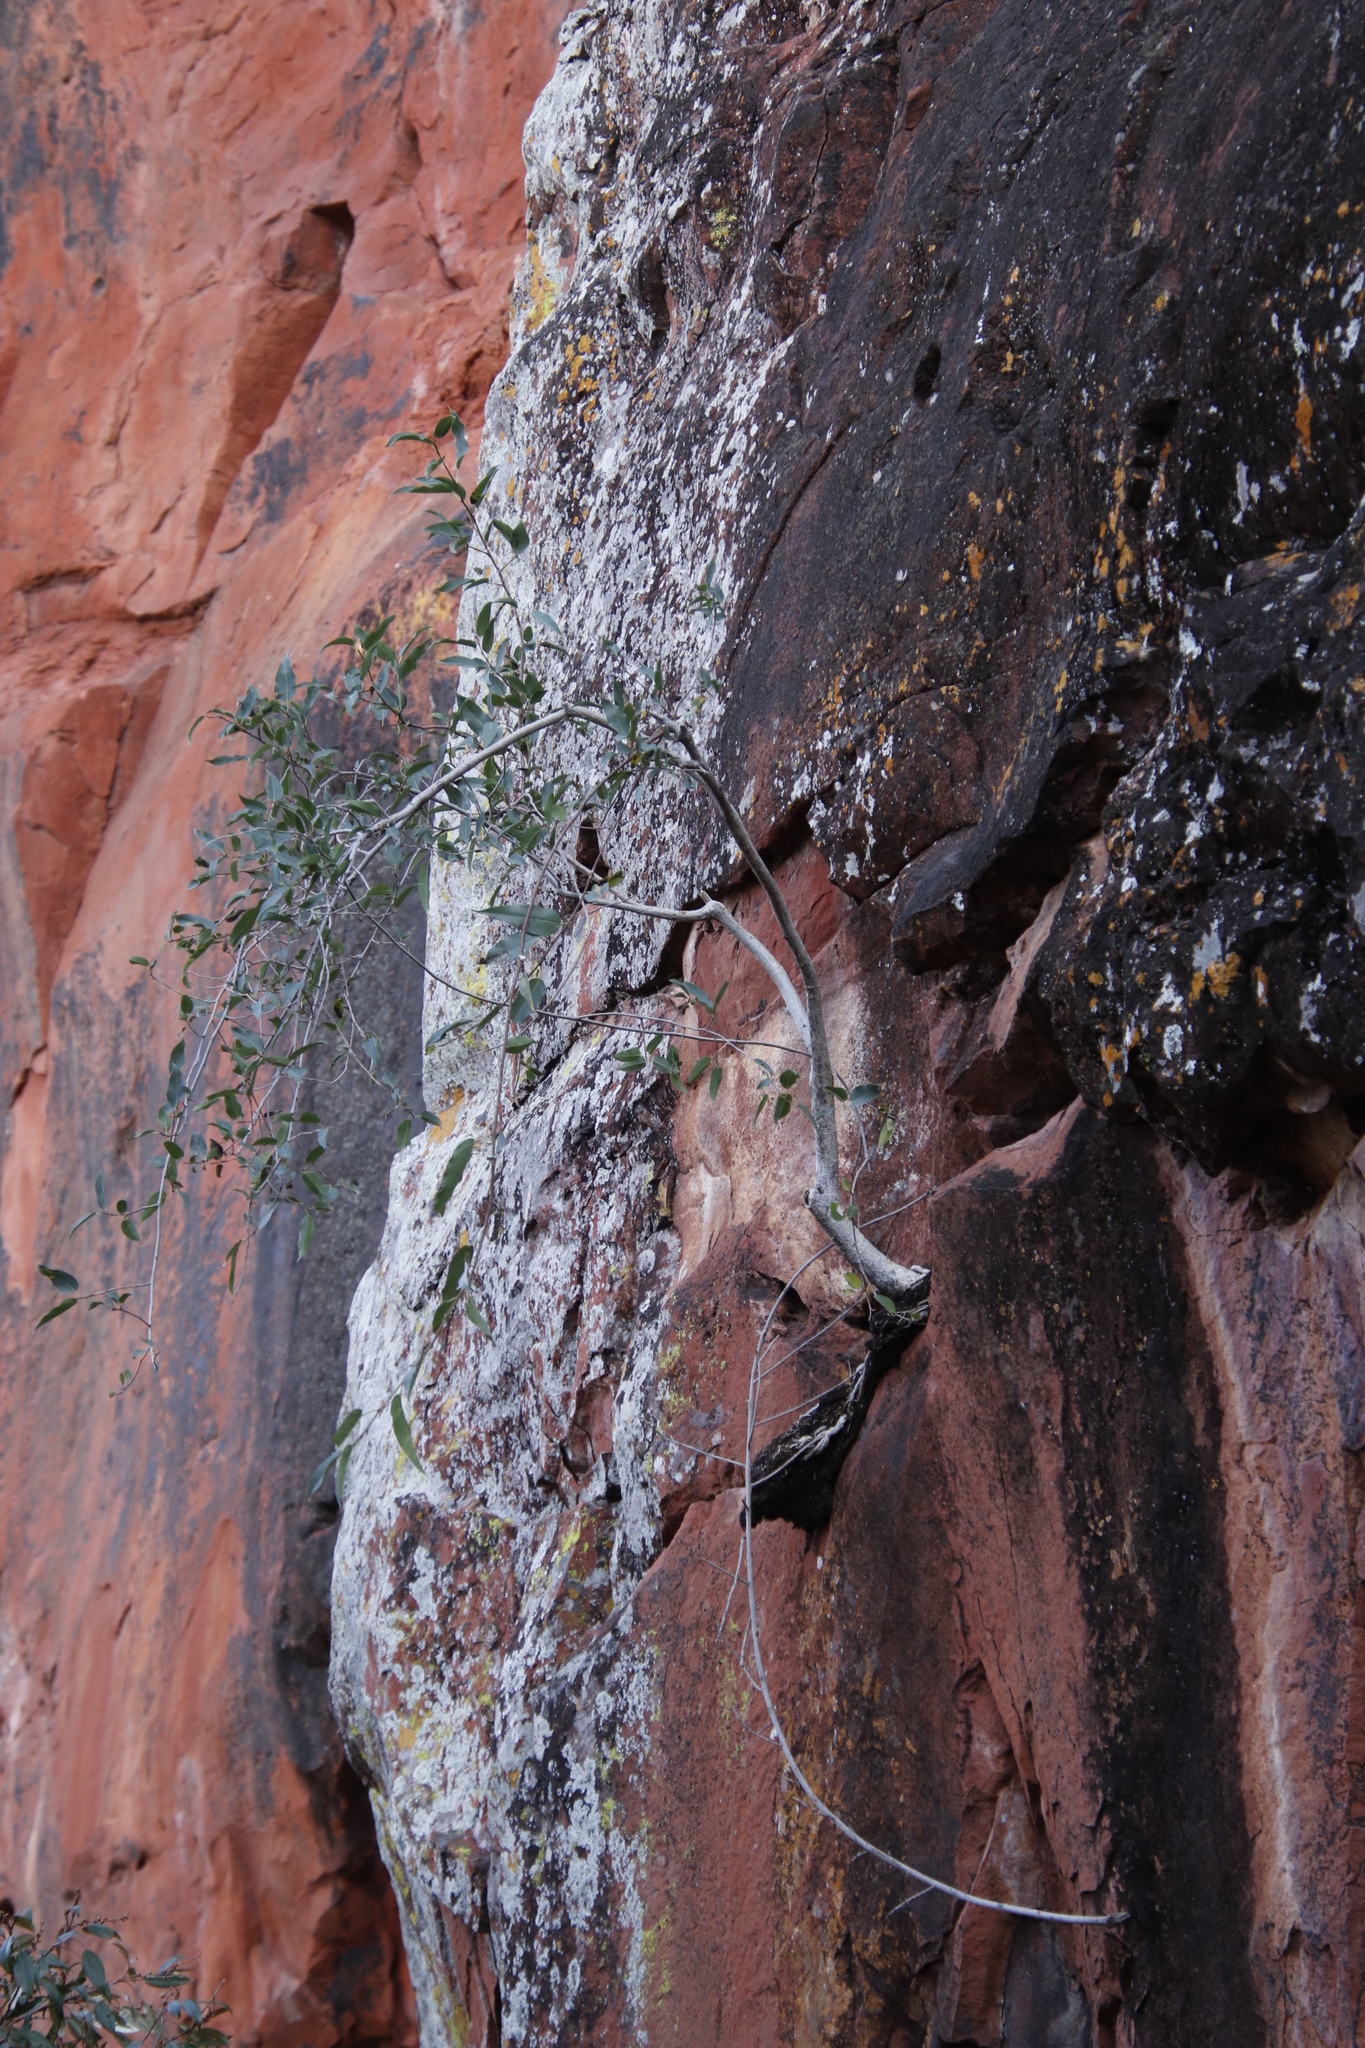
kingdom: Plantae
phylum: Tracheophyta
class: Magnoliopsida
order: Rosales
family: Moraceae
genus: Ficus
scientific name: Ficus cordata
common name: Namaqua rock fig
